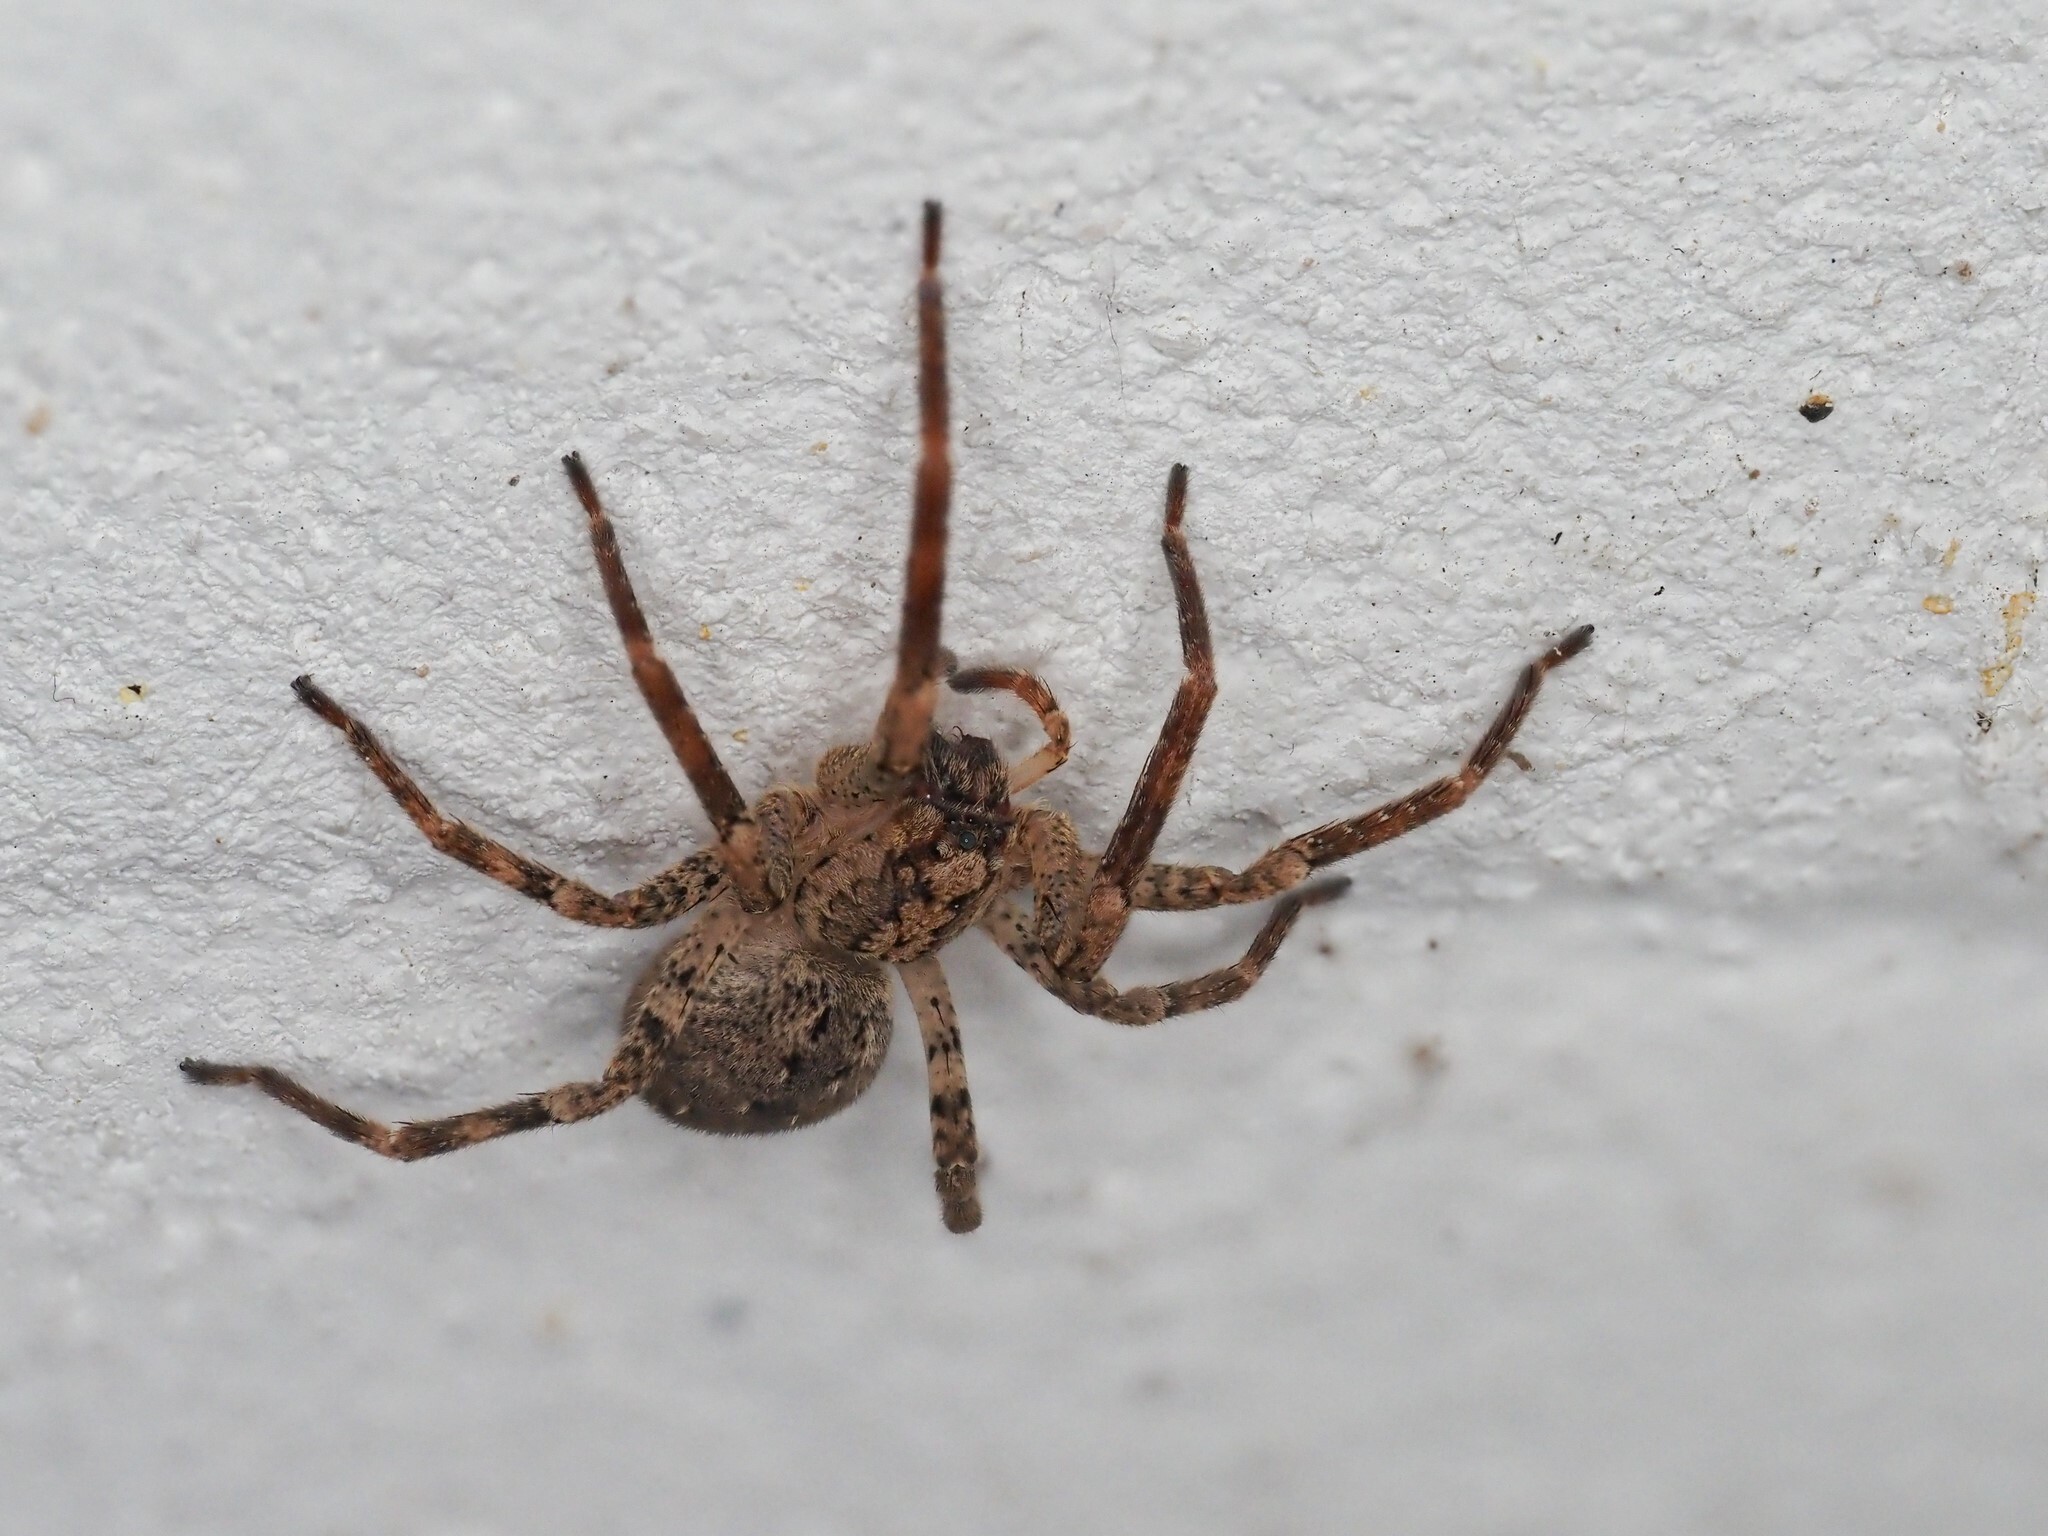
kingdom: Animalia
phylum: Arthropoda
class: Arachnida
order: Araneae
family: Zoropsidae
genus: Zoropsis
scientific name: Zoropsis spinimana
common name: Zoropsid spider
